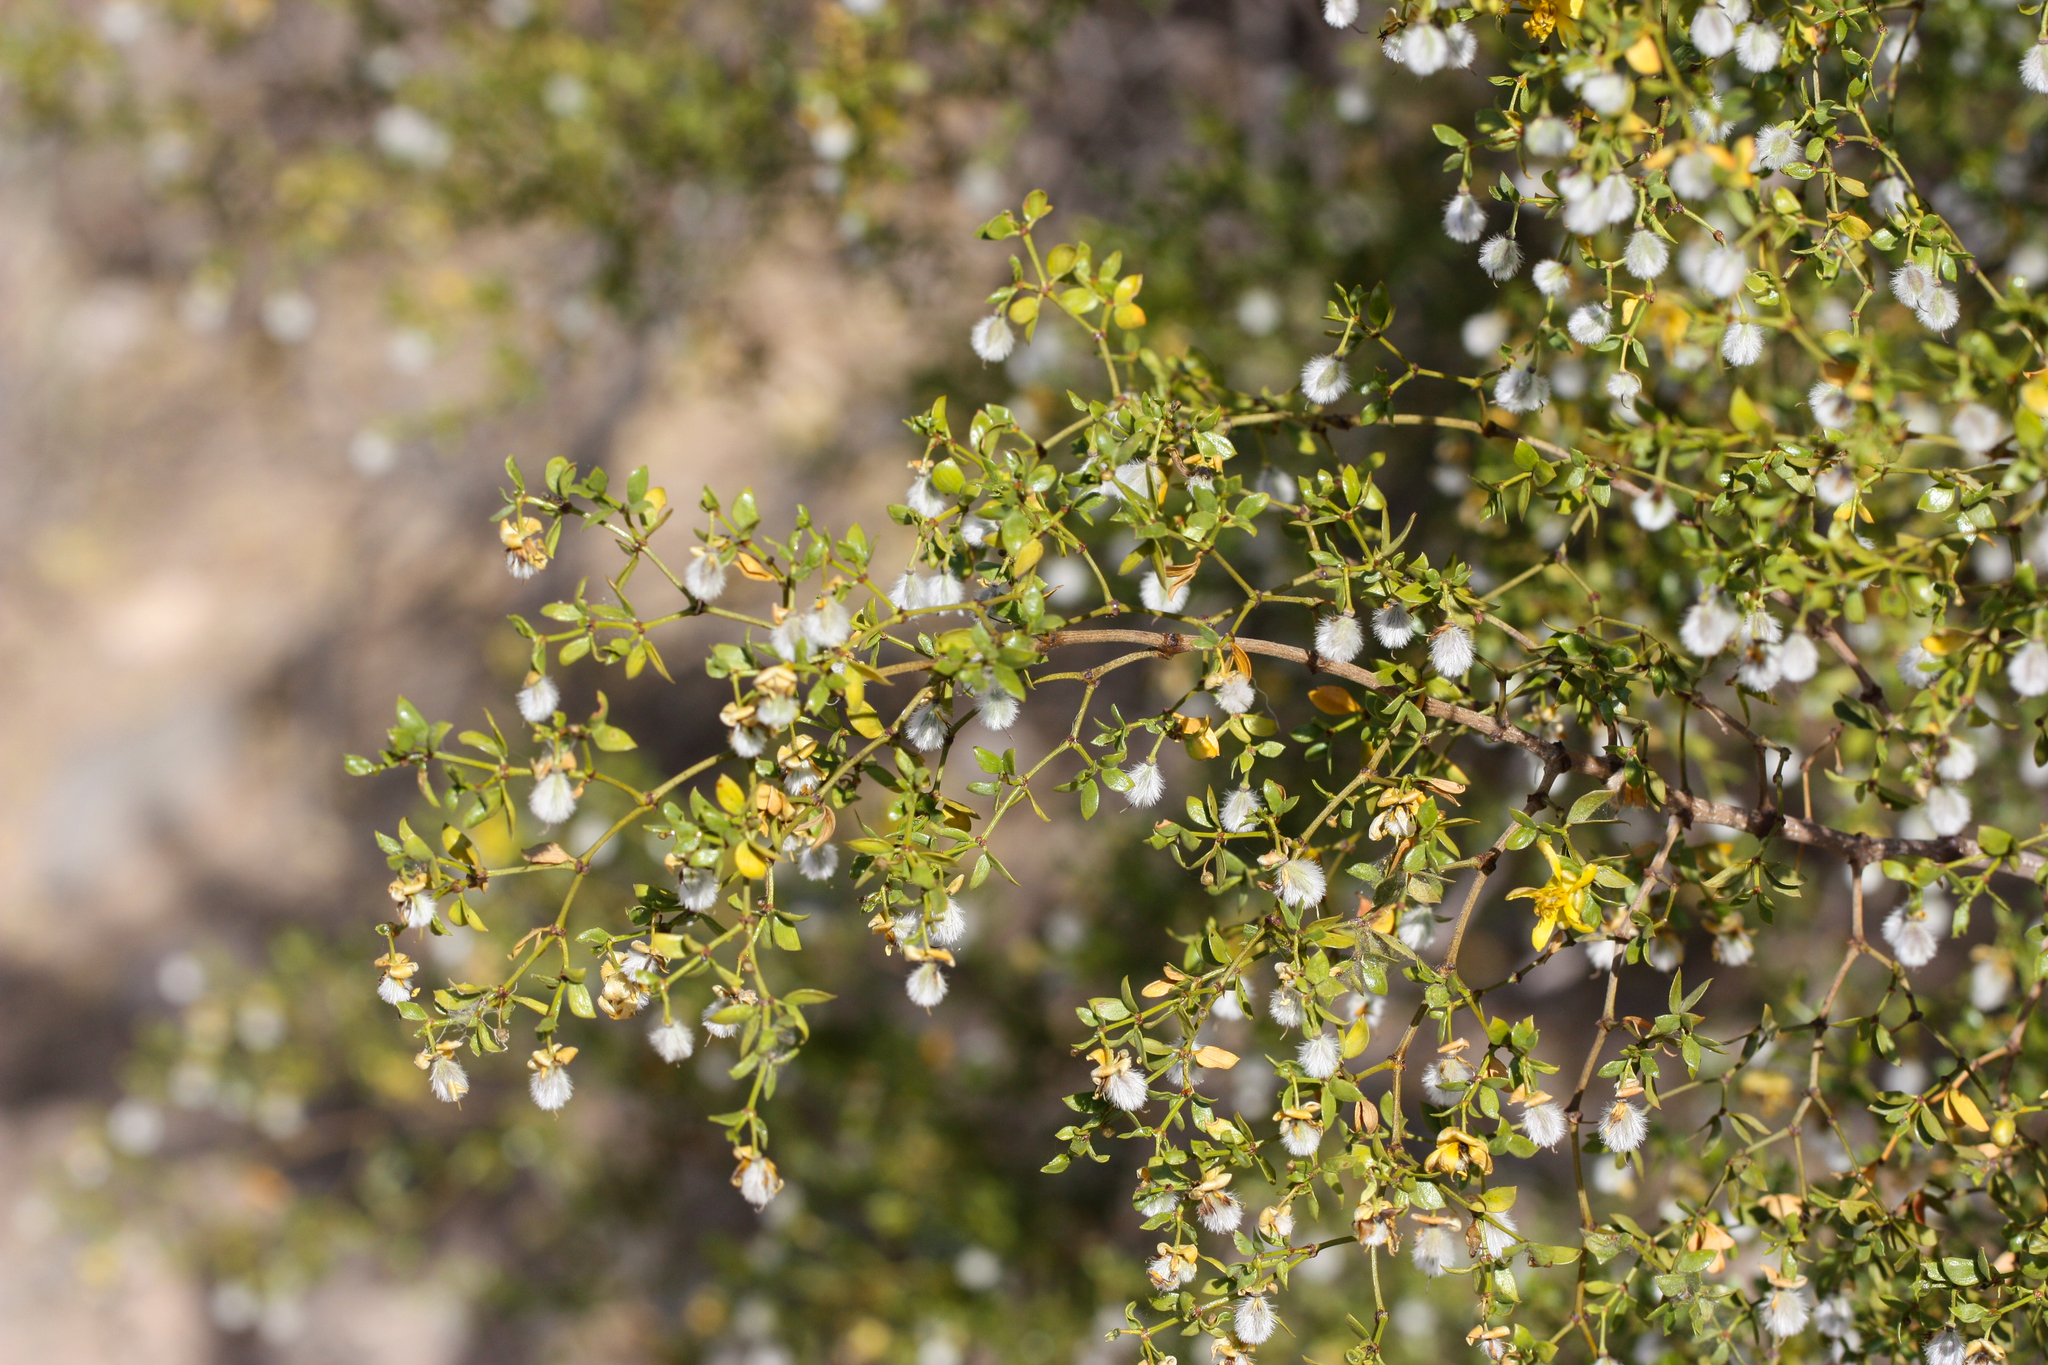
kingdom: Plantae
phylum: Tracheophyta
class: Magnoliopsida
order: Zygophyllales
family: Zygophyllaceae
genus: Larrea
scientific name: Larrea tridentata
